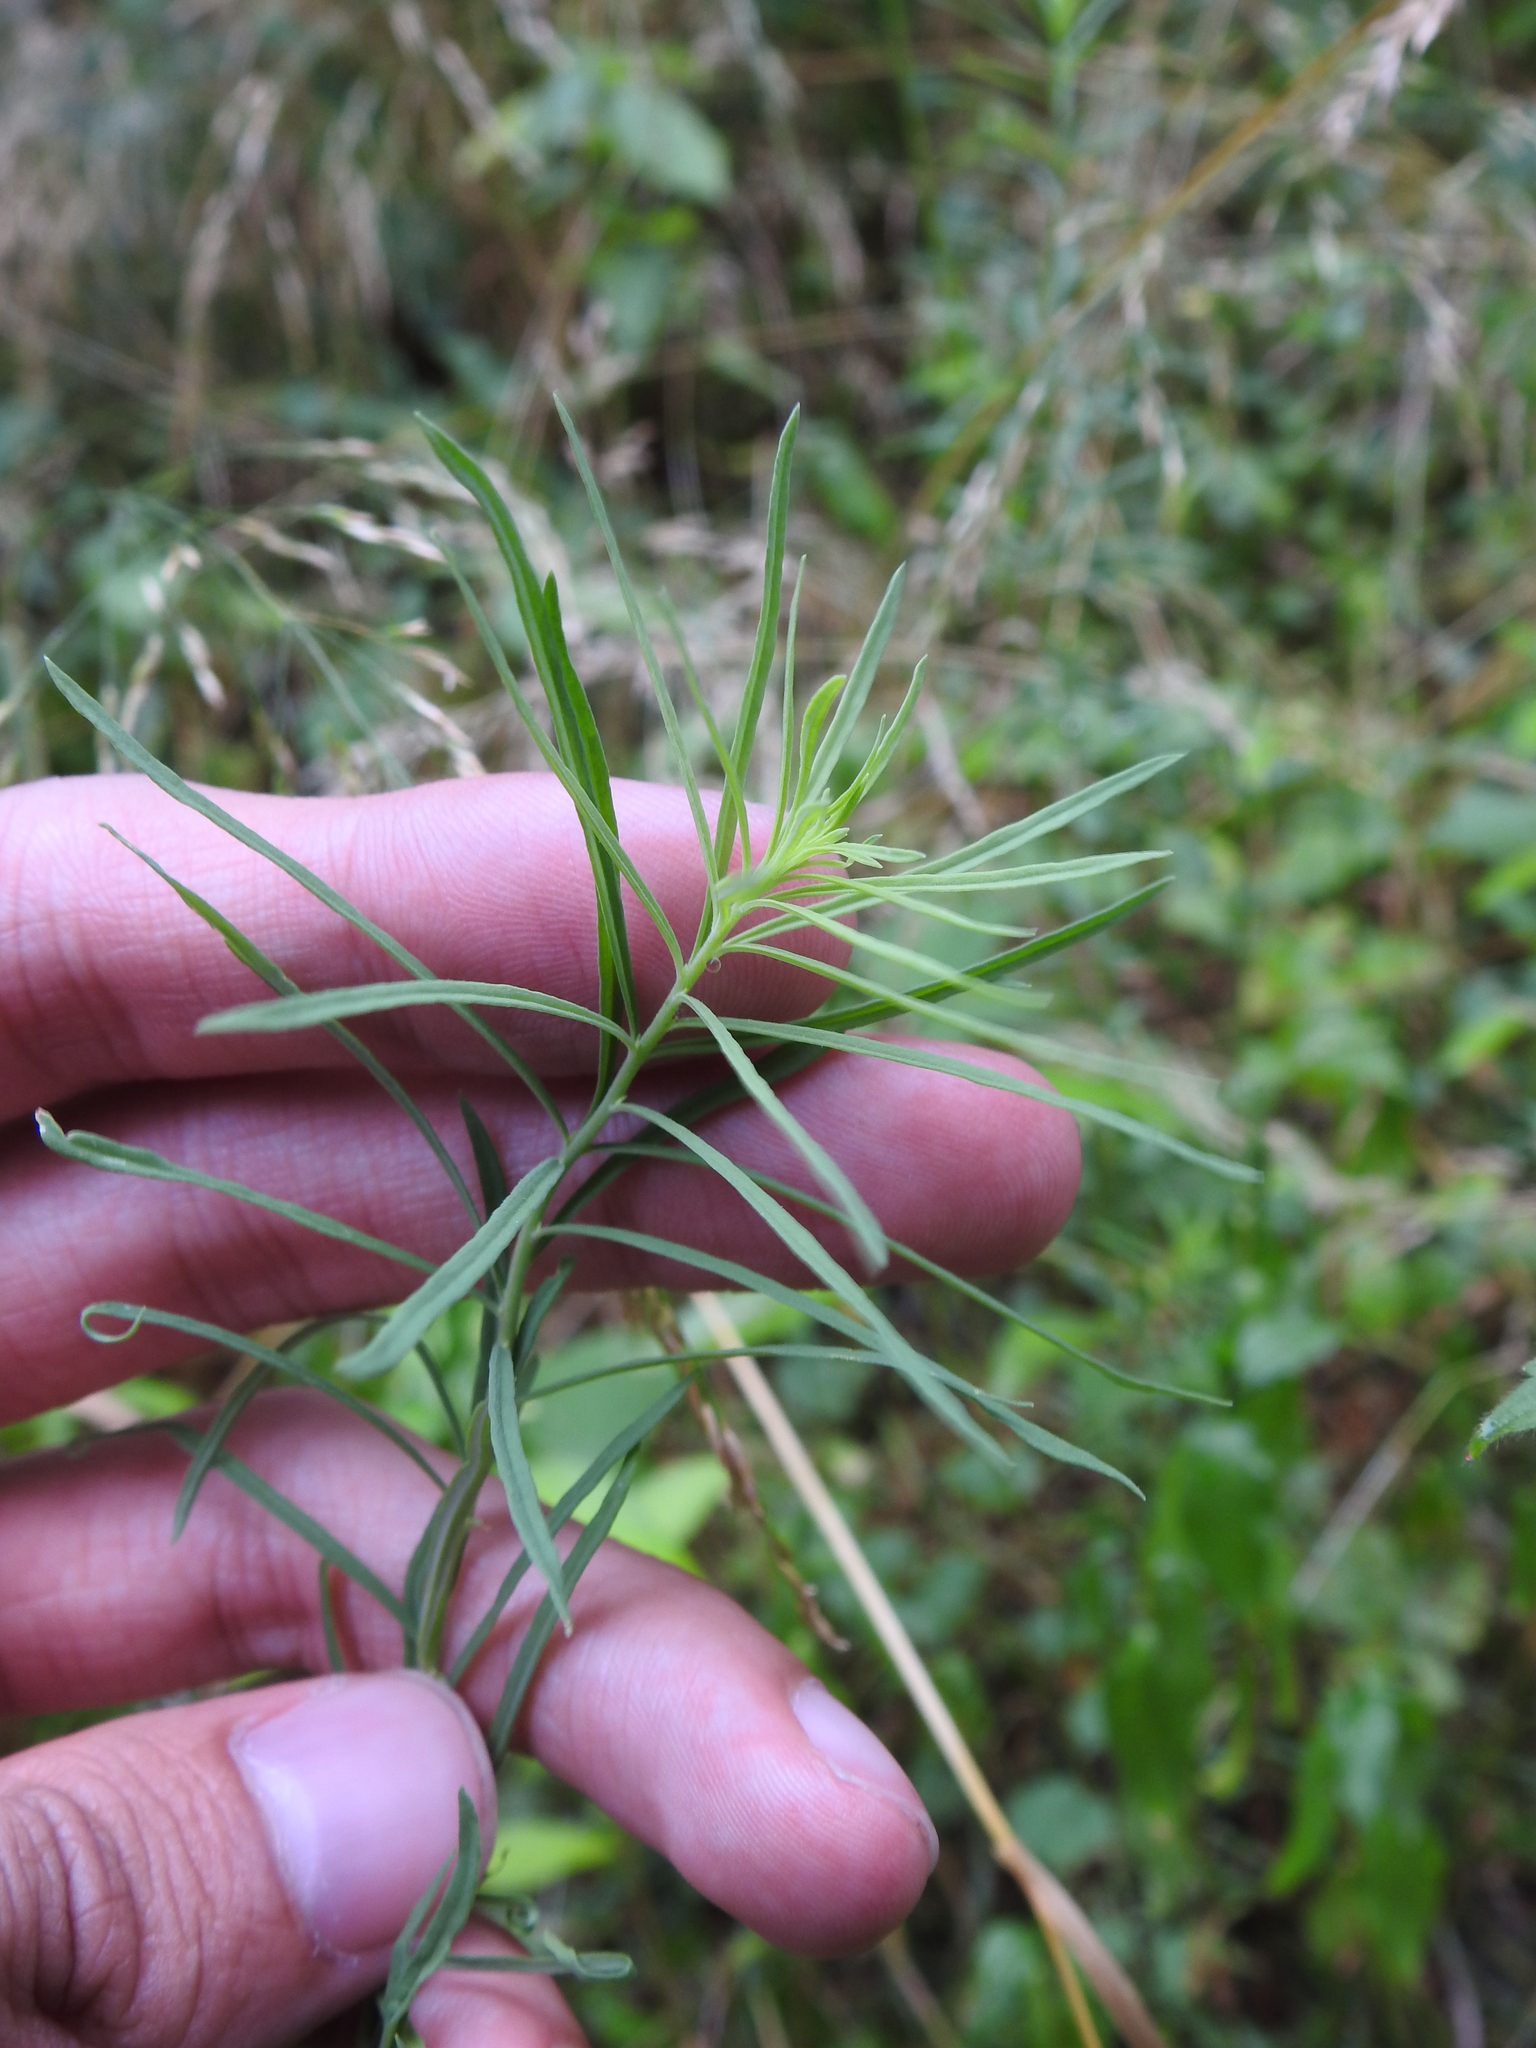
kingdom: Plantae
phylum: Tracheophyta
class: Magnoliopsida
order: Lamiales
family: Plantaginaceae
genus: Linaria
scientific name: Linaria vulgaris
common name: Butter and eggs
